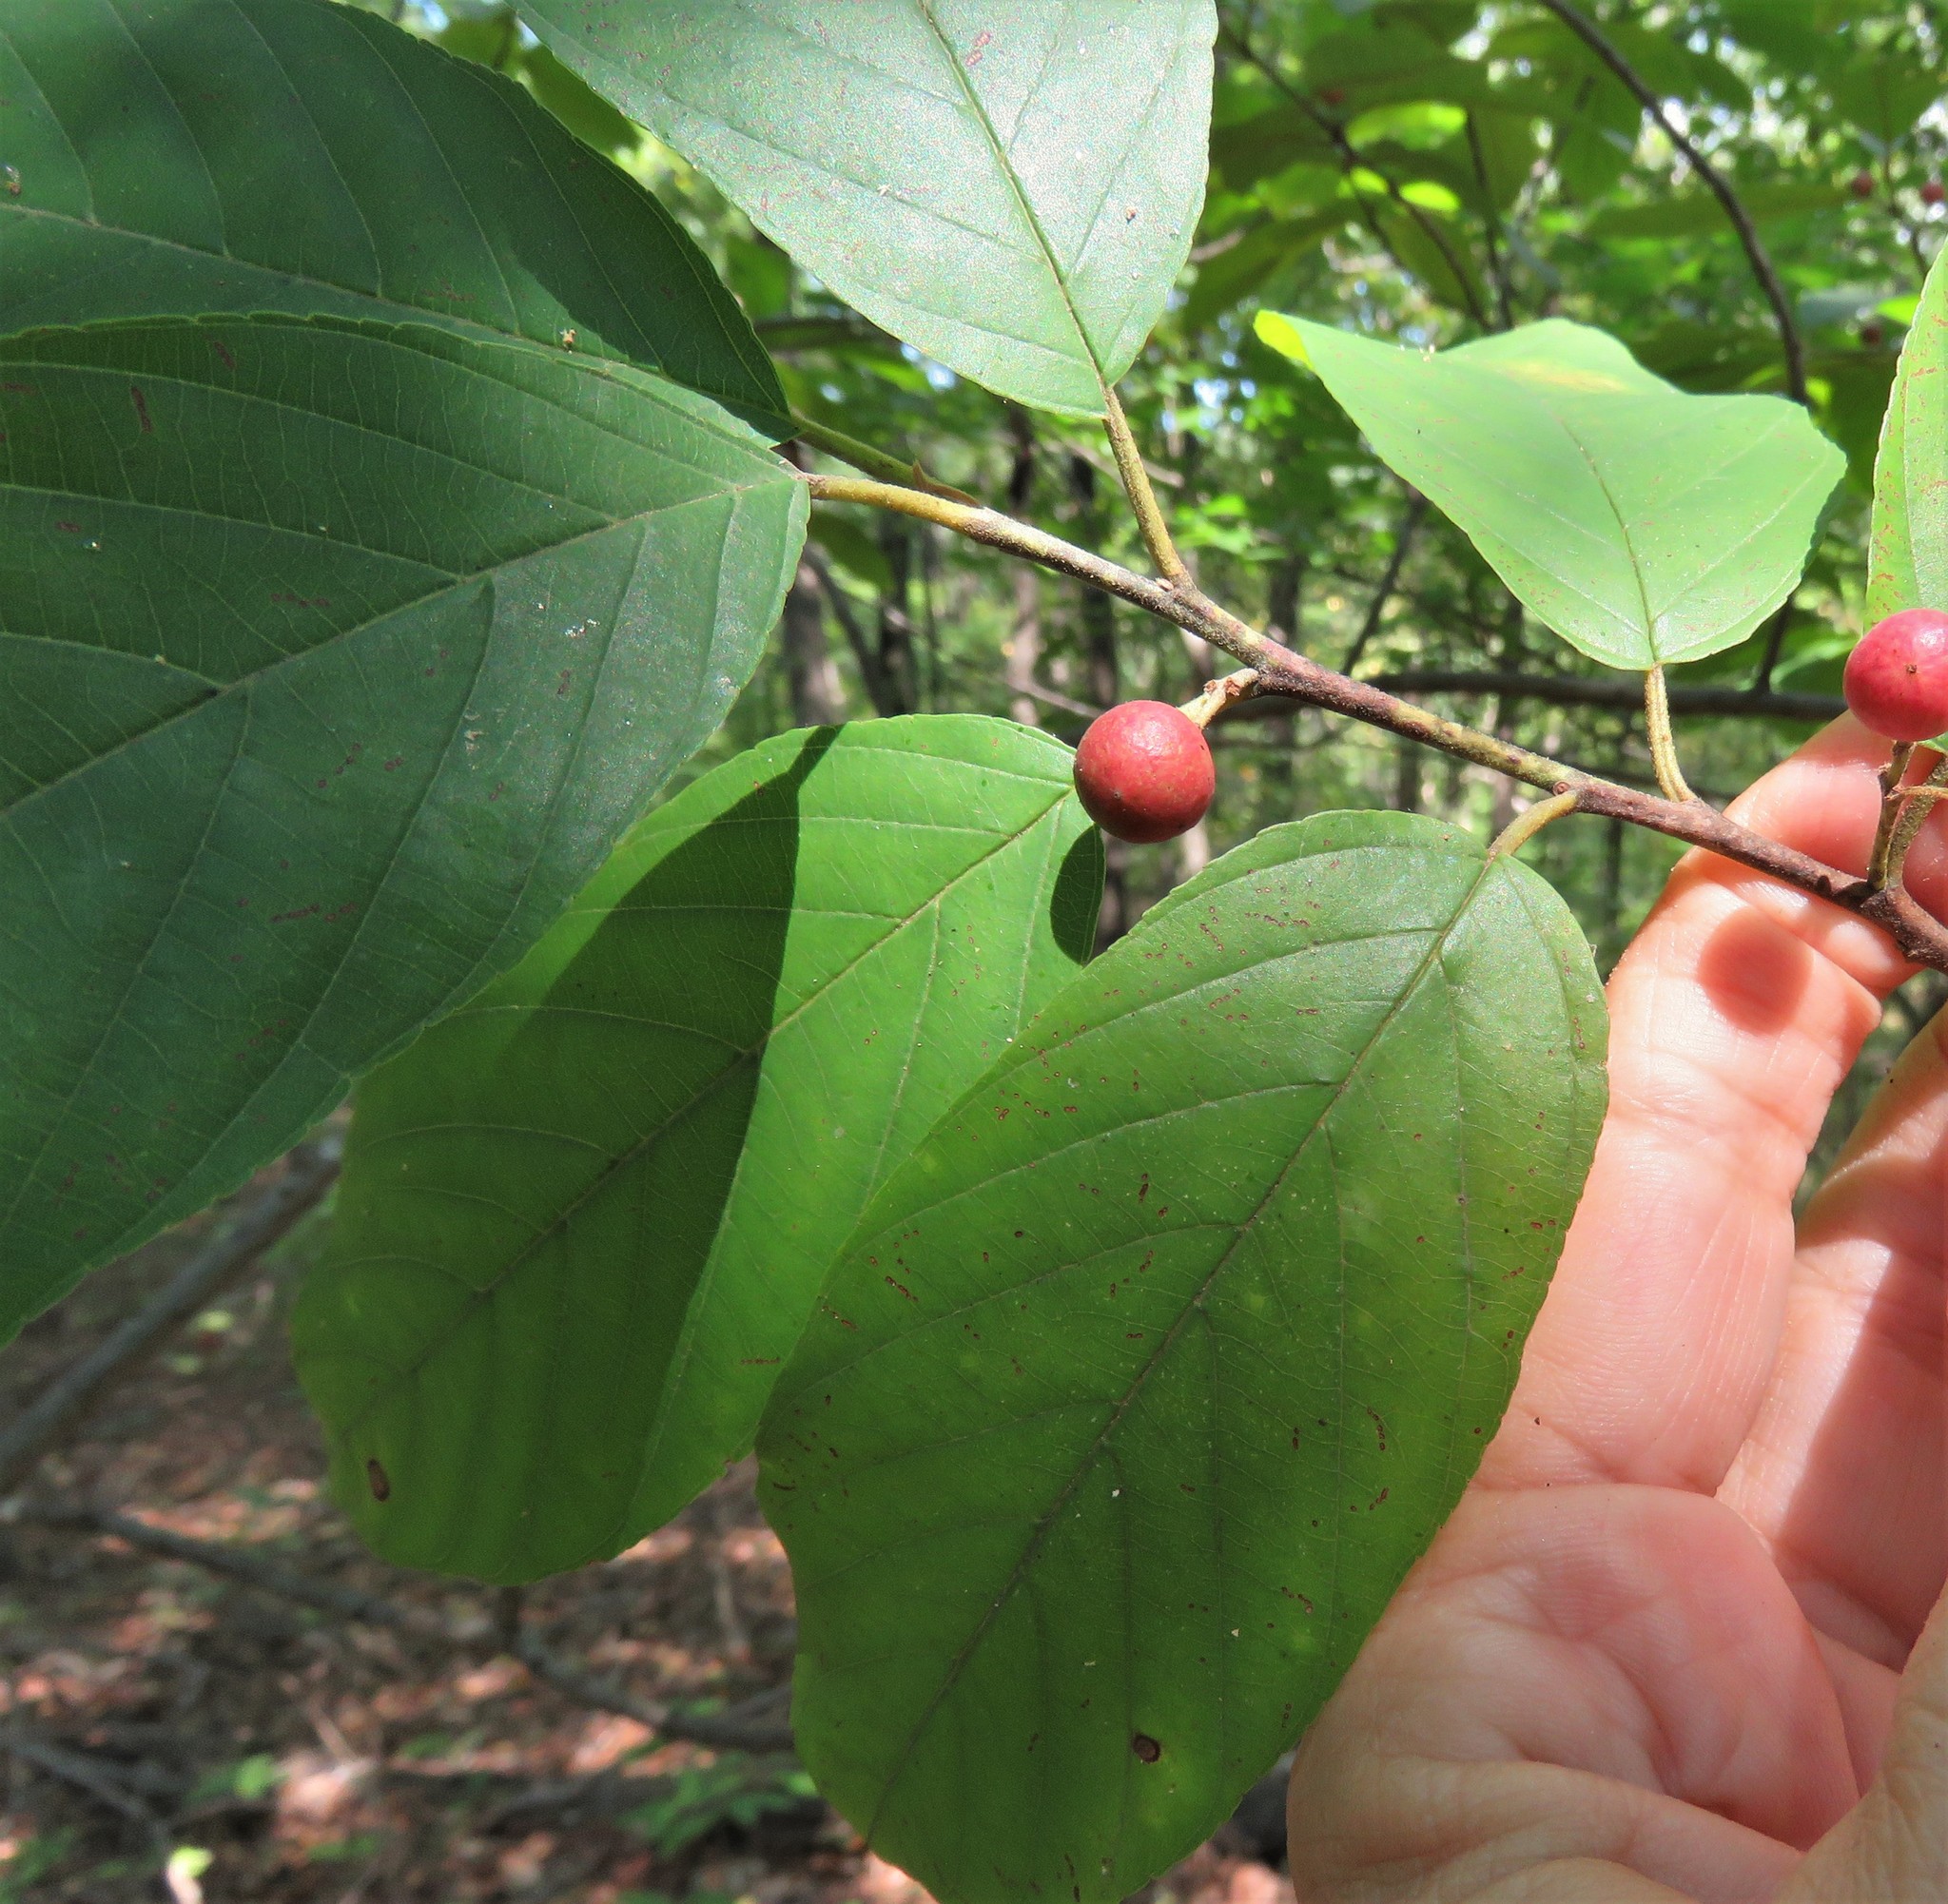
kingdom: Plantae
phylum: Tracheophyta
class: Magnoliopsida
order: Rosales
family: Rhamnaceae
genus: Frangula
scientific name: Frangula caroliniana
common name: Carolina buckthorn
